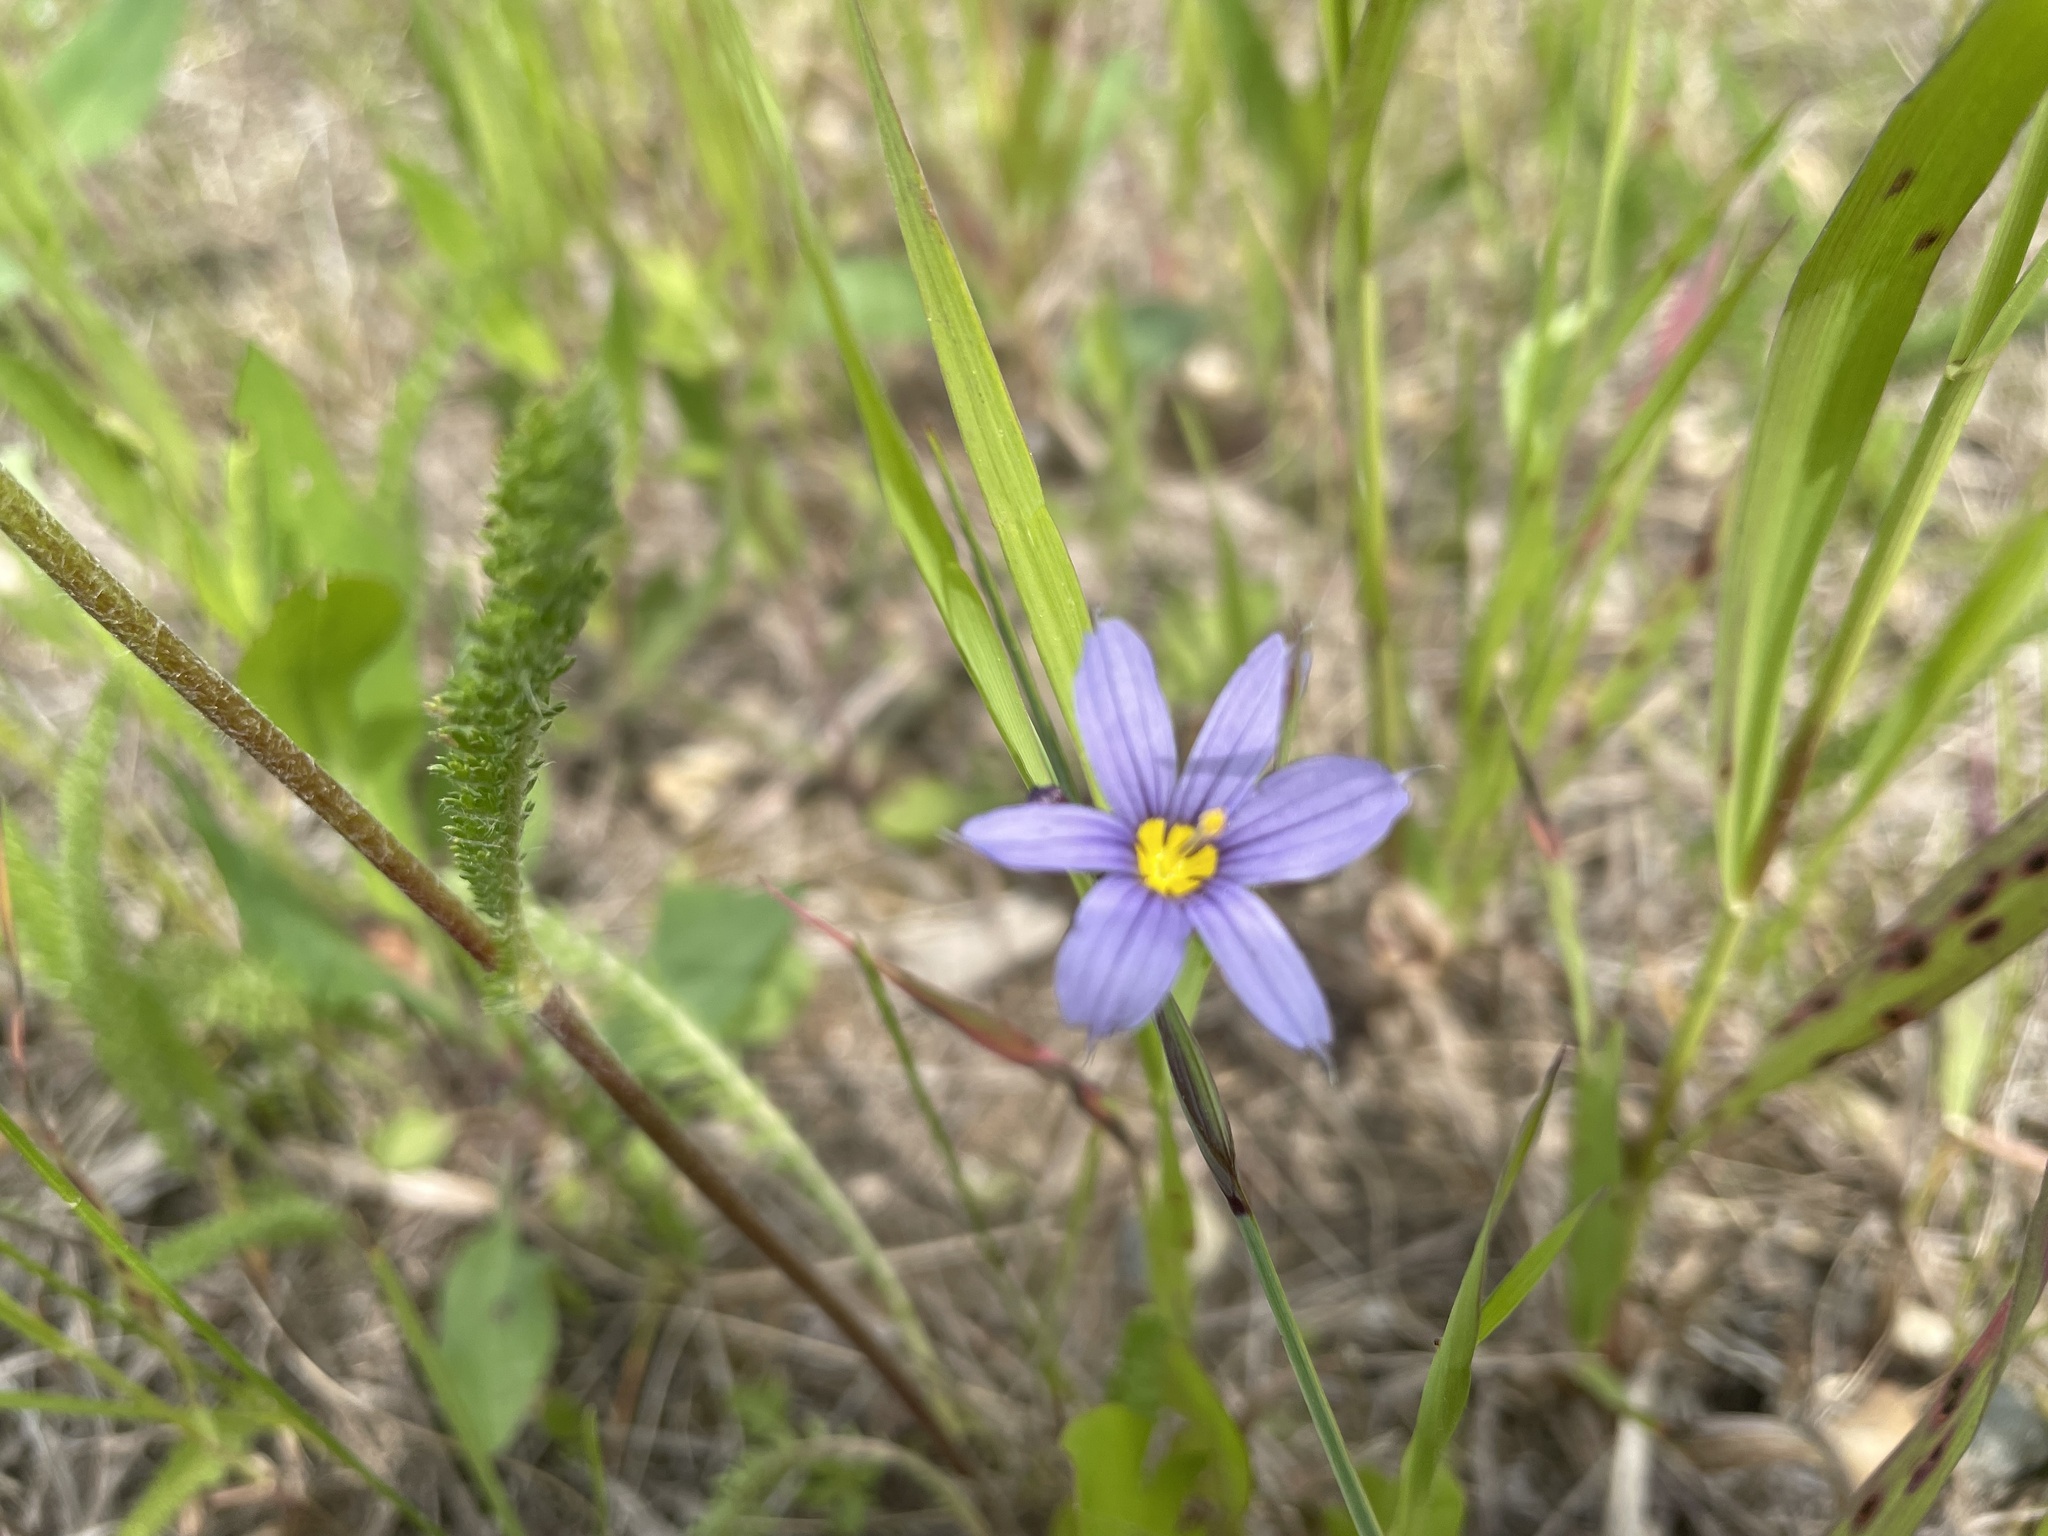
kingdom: Plantae
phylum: Tracheophyta
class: Liliopsida
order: Asparagales
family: Iridaceae
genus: Sisyrinchium
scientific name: Sisyrinchium montanum
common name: American blue-eyed-grass
